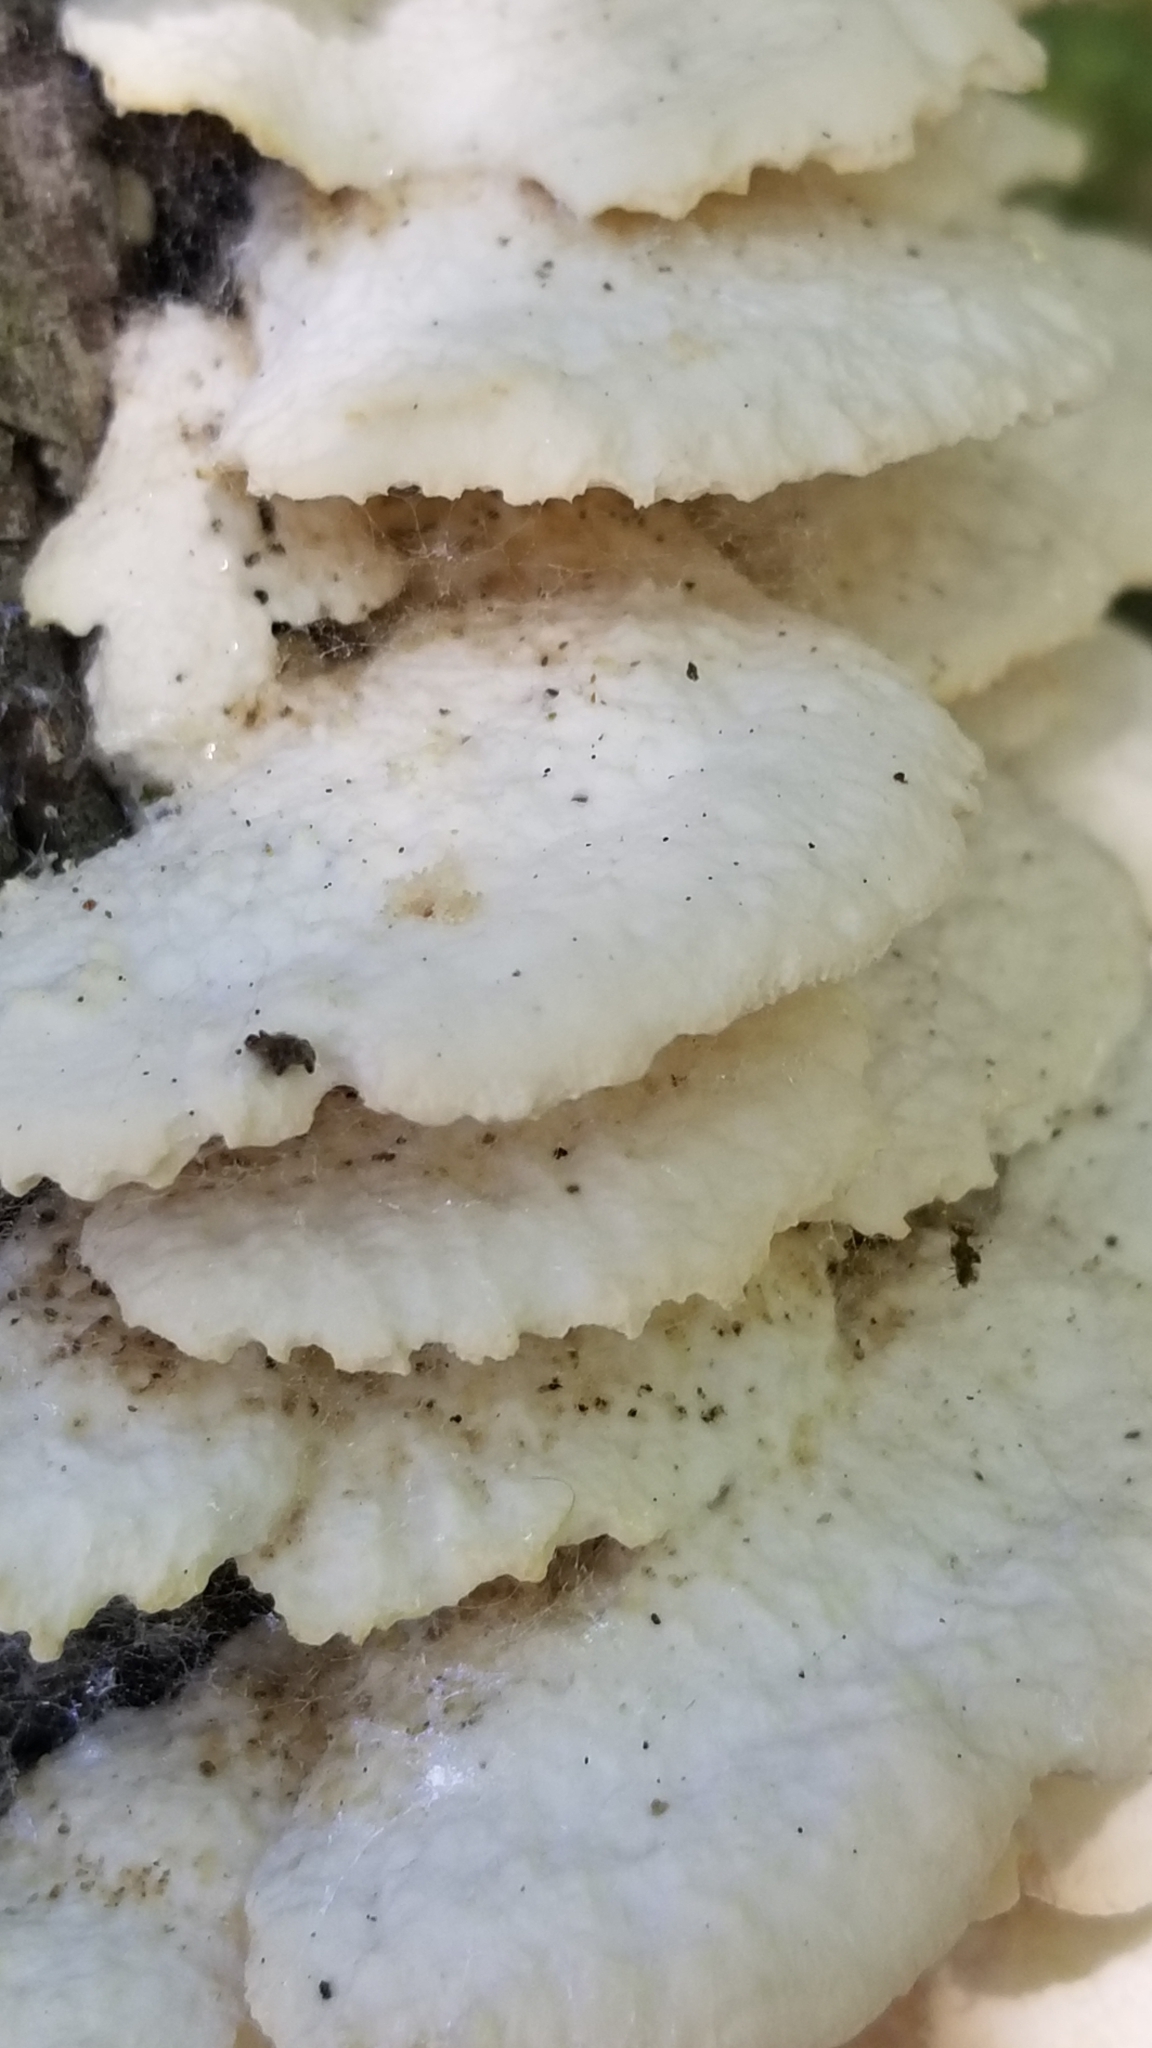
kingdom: Fungi
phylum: Basidiomycota
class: Agaricomycetes
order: Polyporales
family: Meruliaceae
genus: Irpiciporus
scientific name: Irpiciporus pachyodon
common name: Marshmallow polypore
